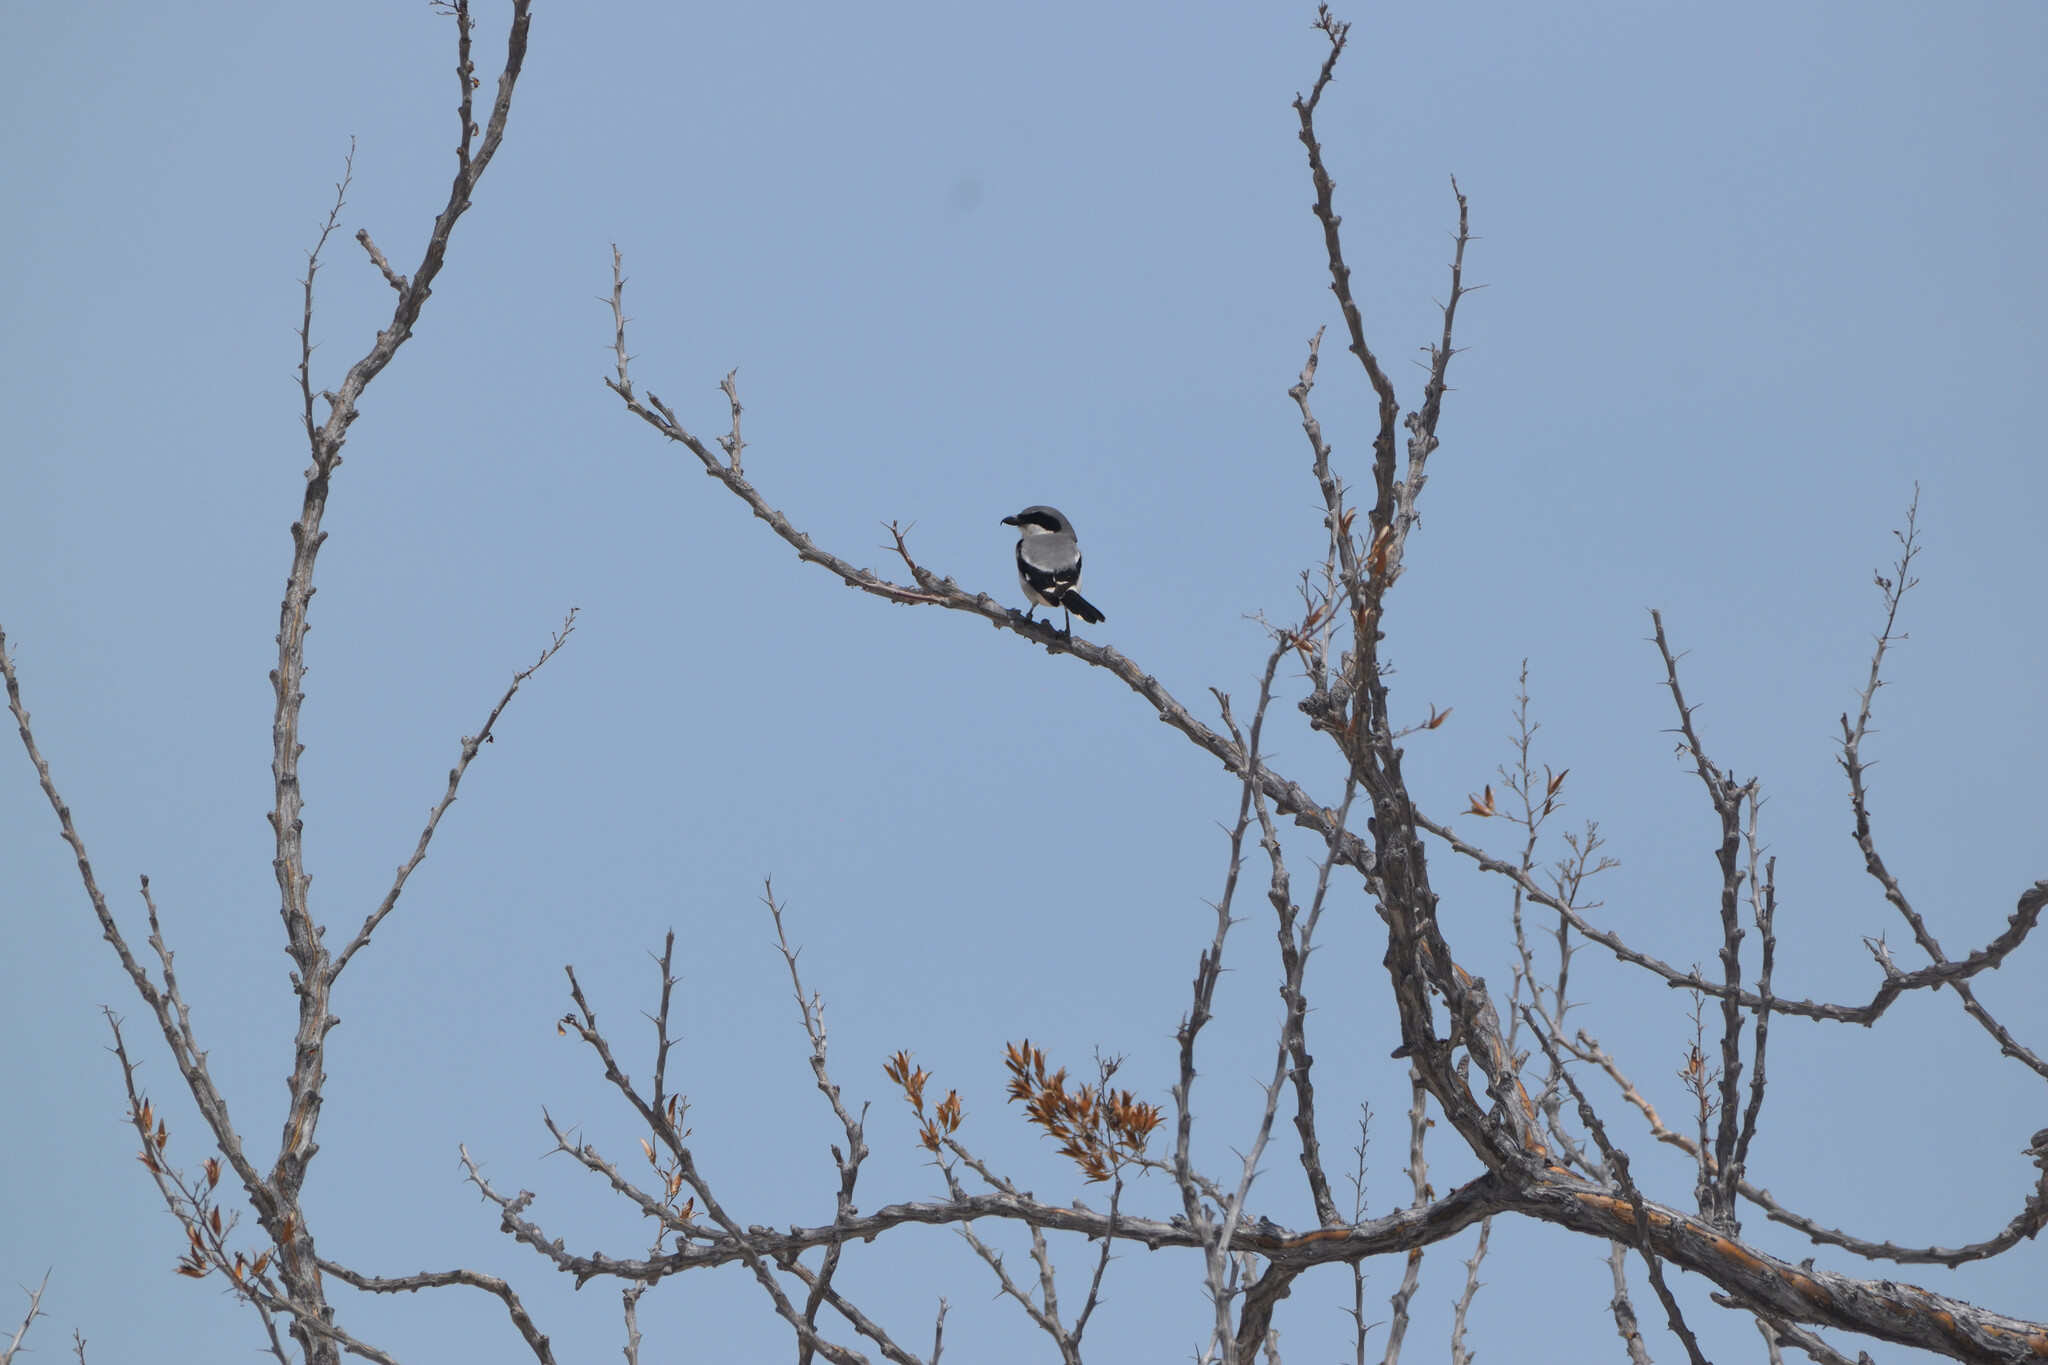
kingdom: Animalia
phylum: Chordata
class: Aves
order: Passeriformes
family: Laniidae
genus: Lanius
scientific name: Lanius ludovicianus
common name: Loggerhead shrike
